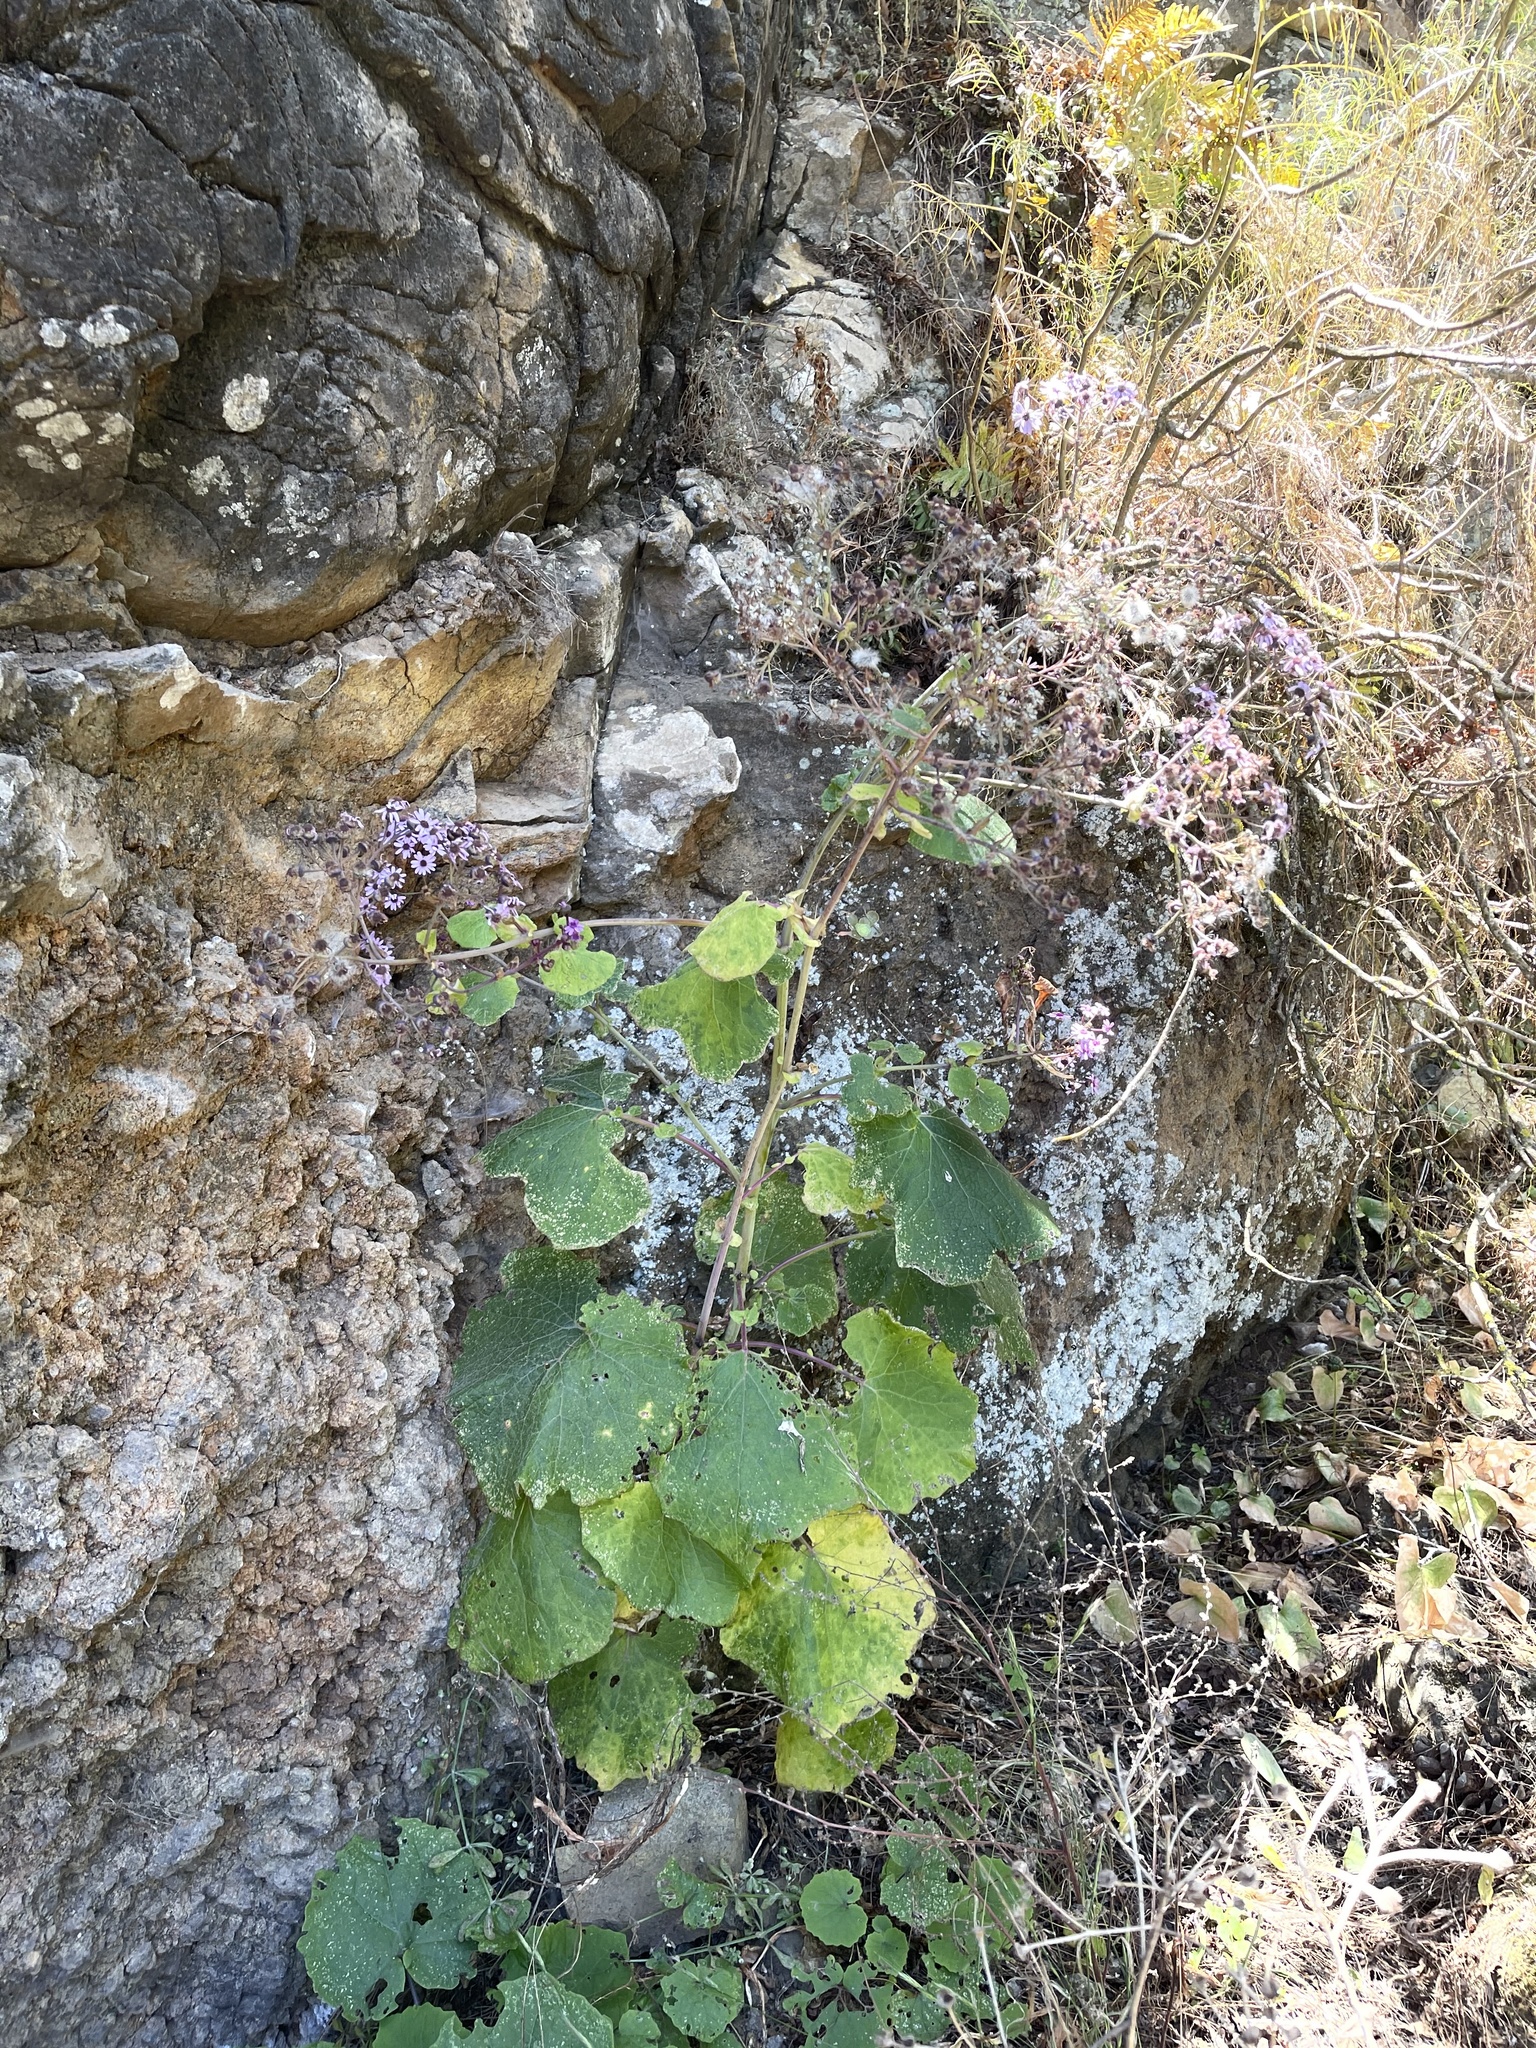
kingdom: Plantae
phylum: Tracheophyta
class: Magnoliopsida
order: Asterales
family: Asteraceae
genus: Pericallis
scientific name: Pericallis webbii
